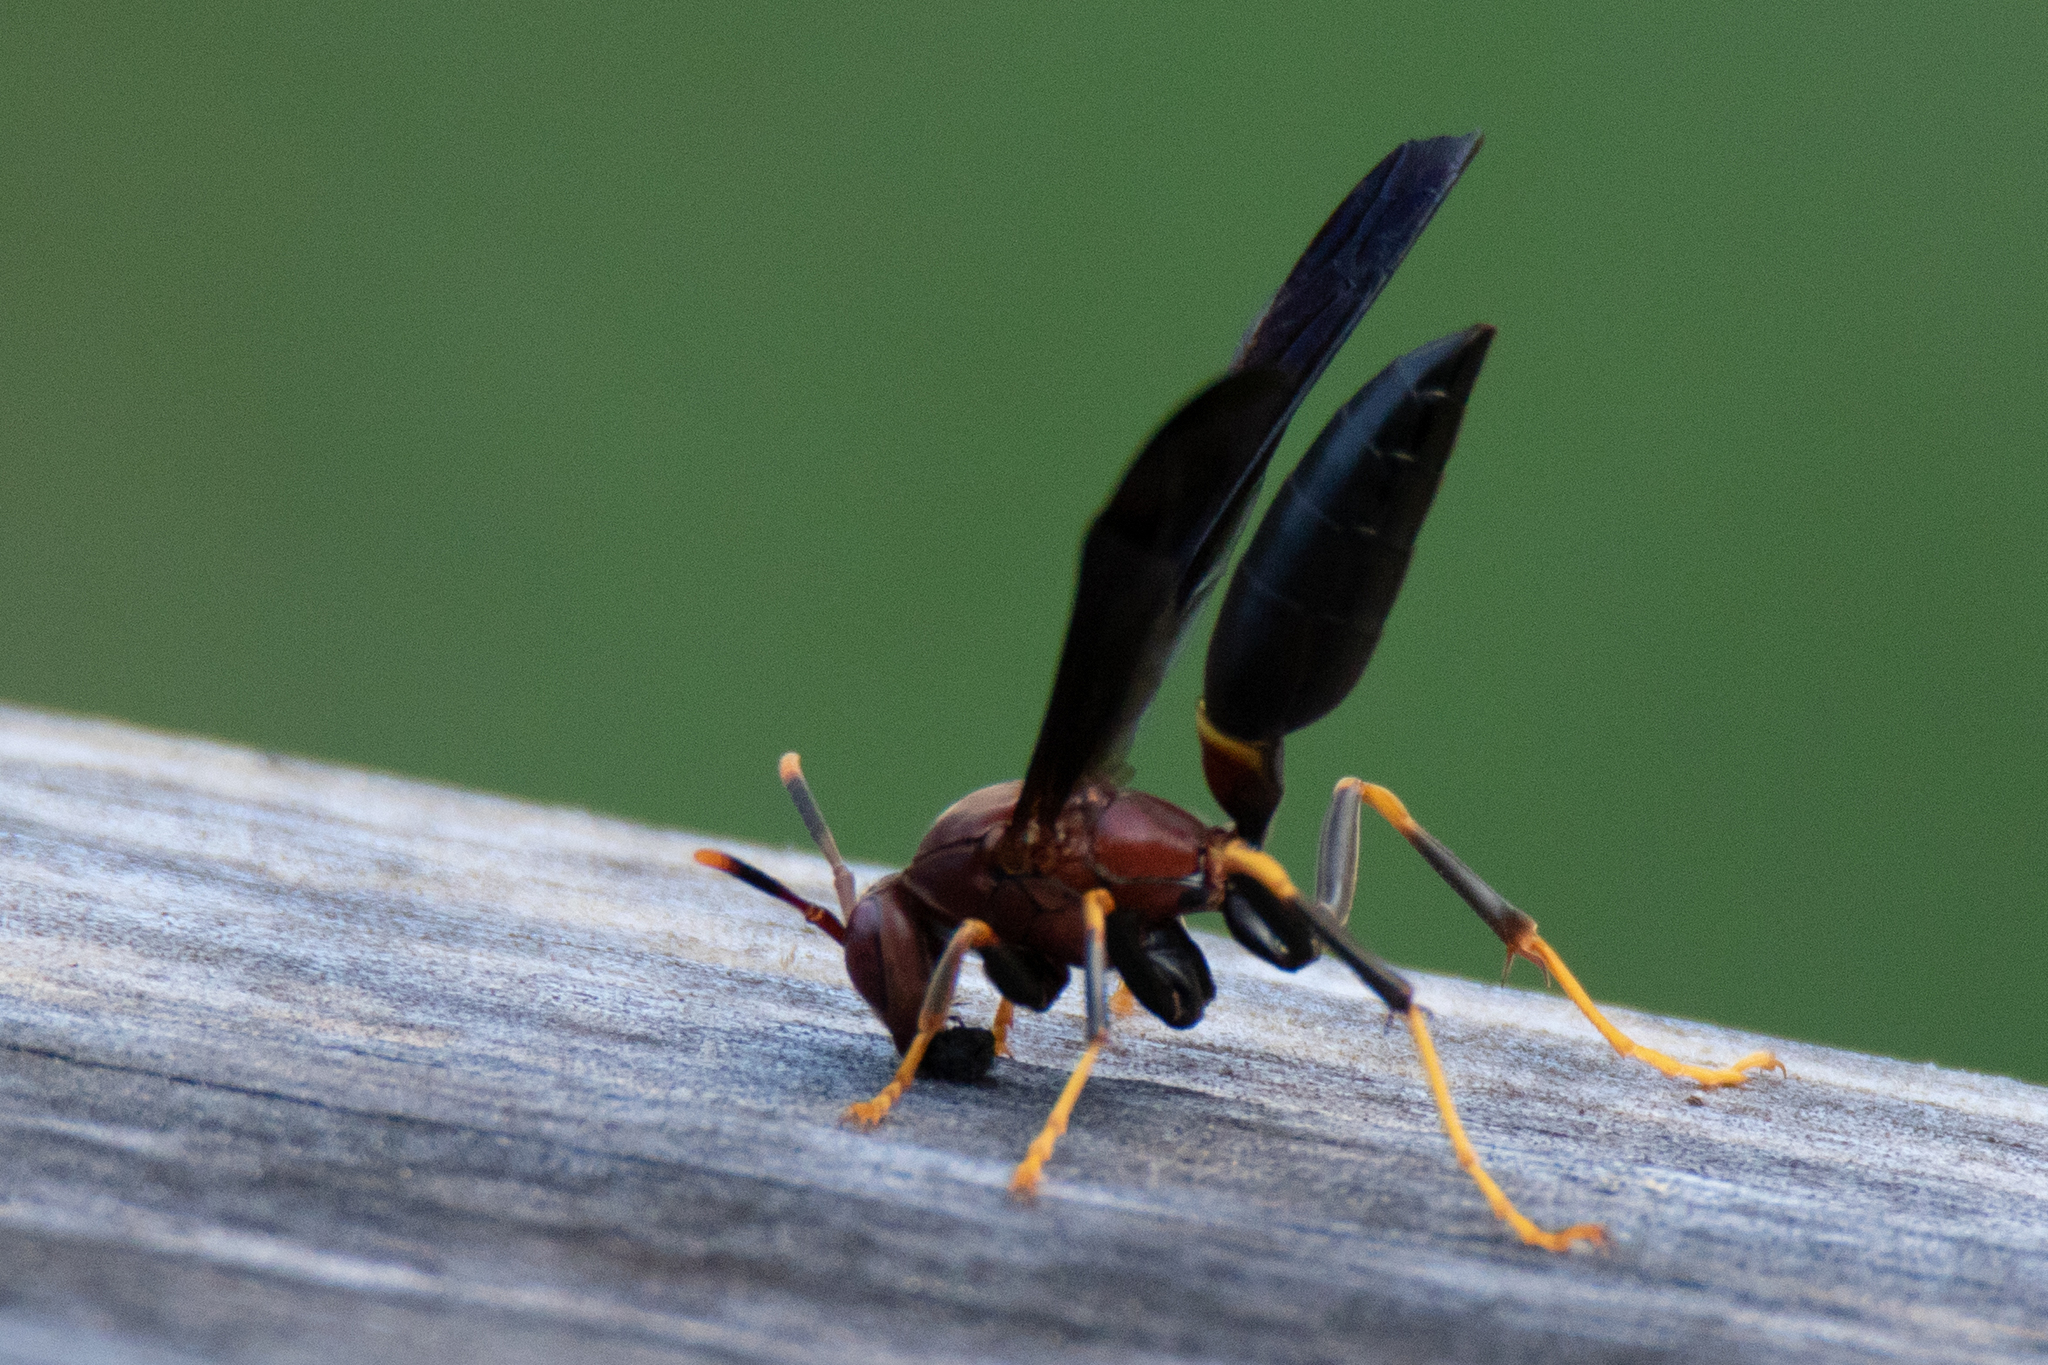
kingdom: Animalia
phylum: Arthropoda
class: Insecta
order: Hymenoptera
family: Eumenidae
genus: Polistes
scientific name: Polistes annularis
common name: Ringed paper wasp
